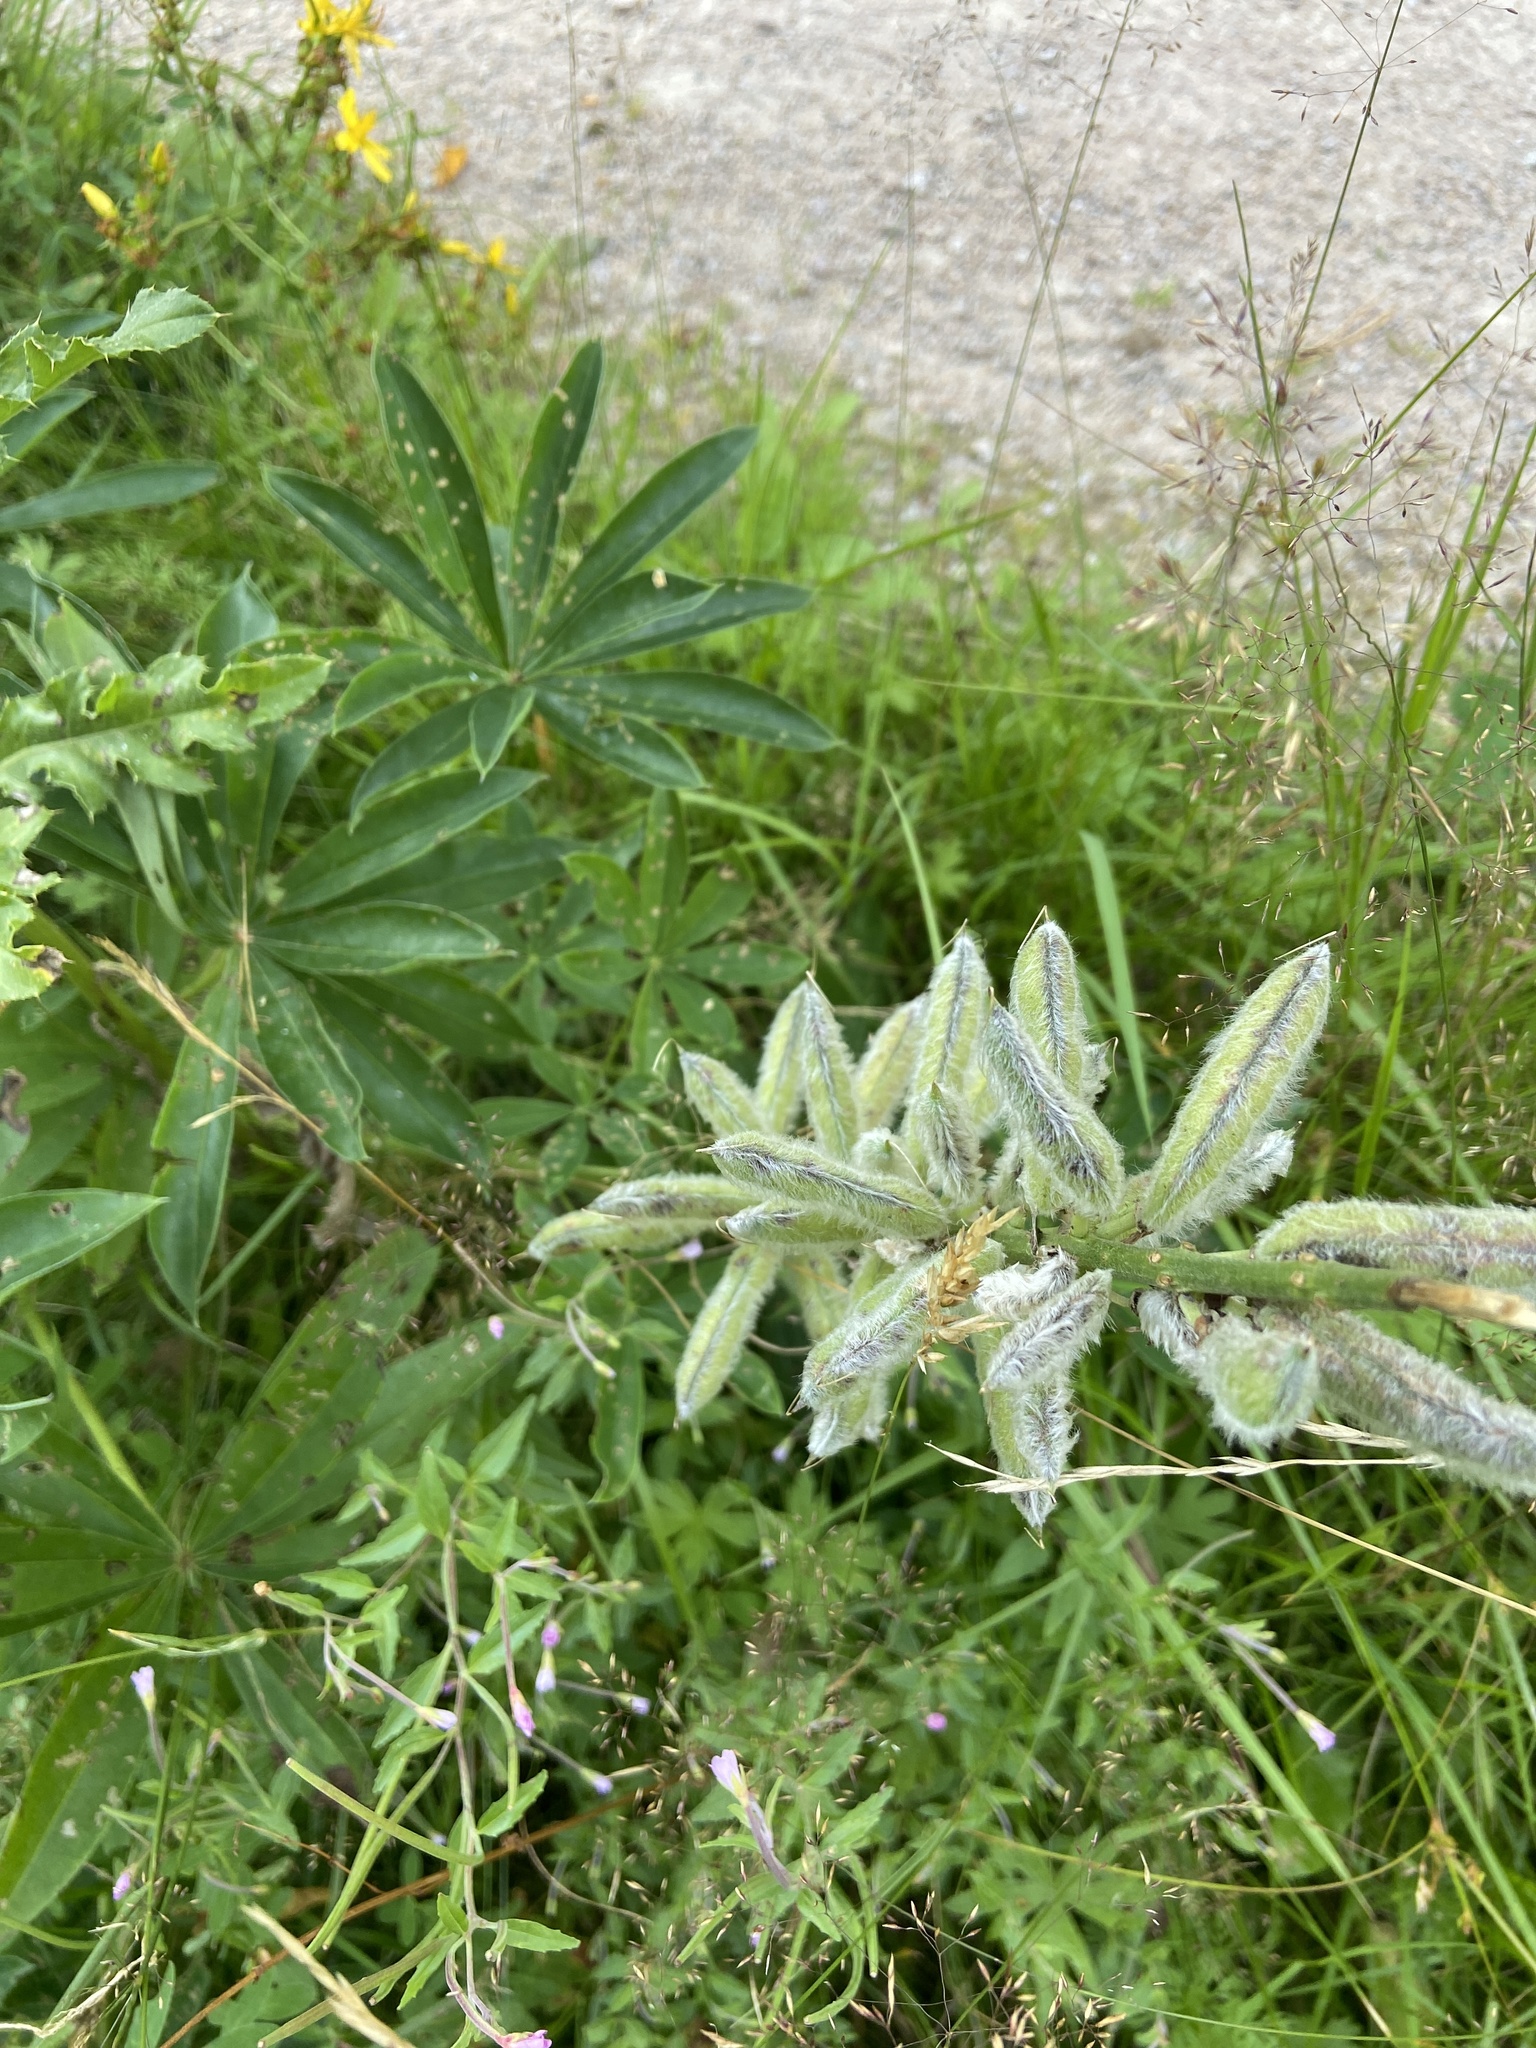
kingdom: Plantae
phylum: Tracheophyta
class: Magnoliopsida
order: Fabales
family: Fabaceae
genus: Lupinus
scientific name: Lupinus polyphyllus
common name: Garden lupin
